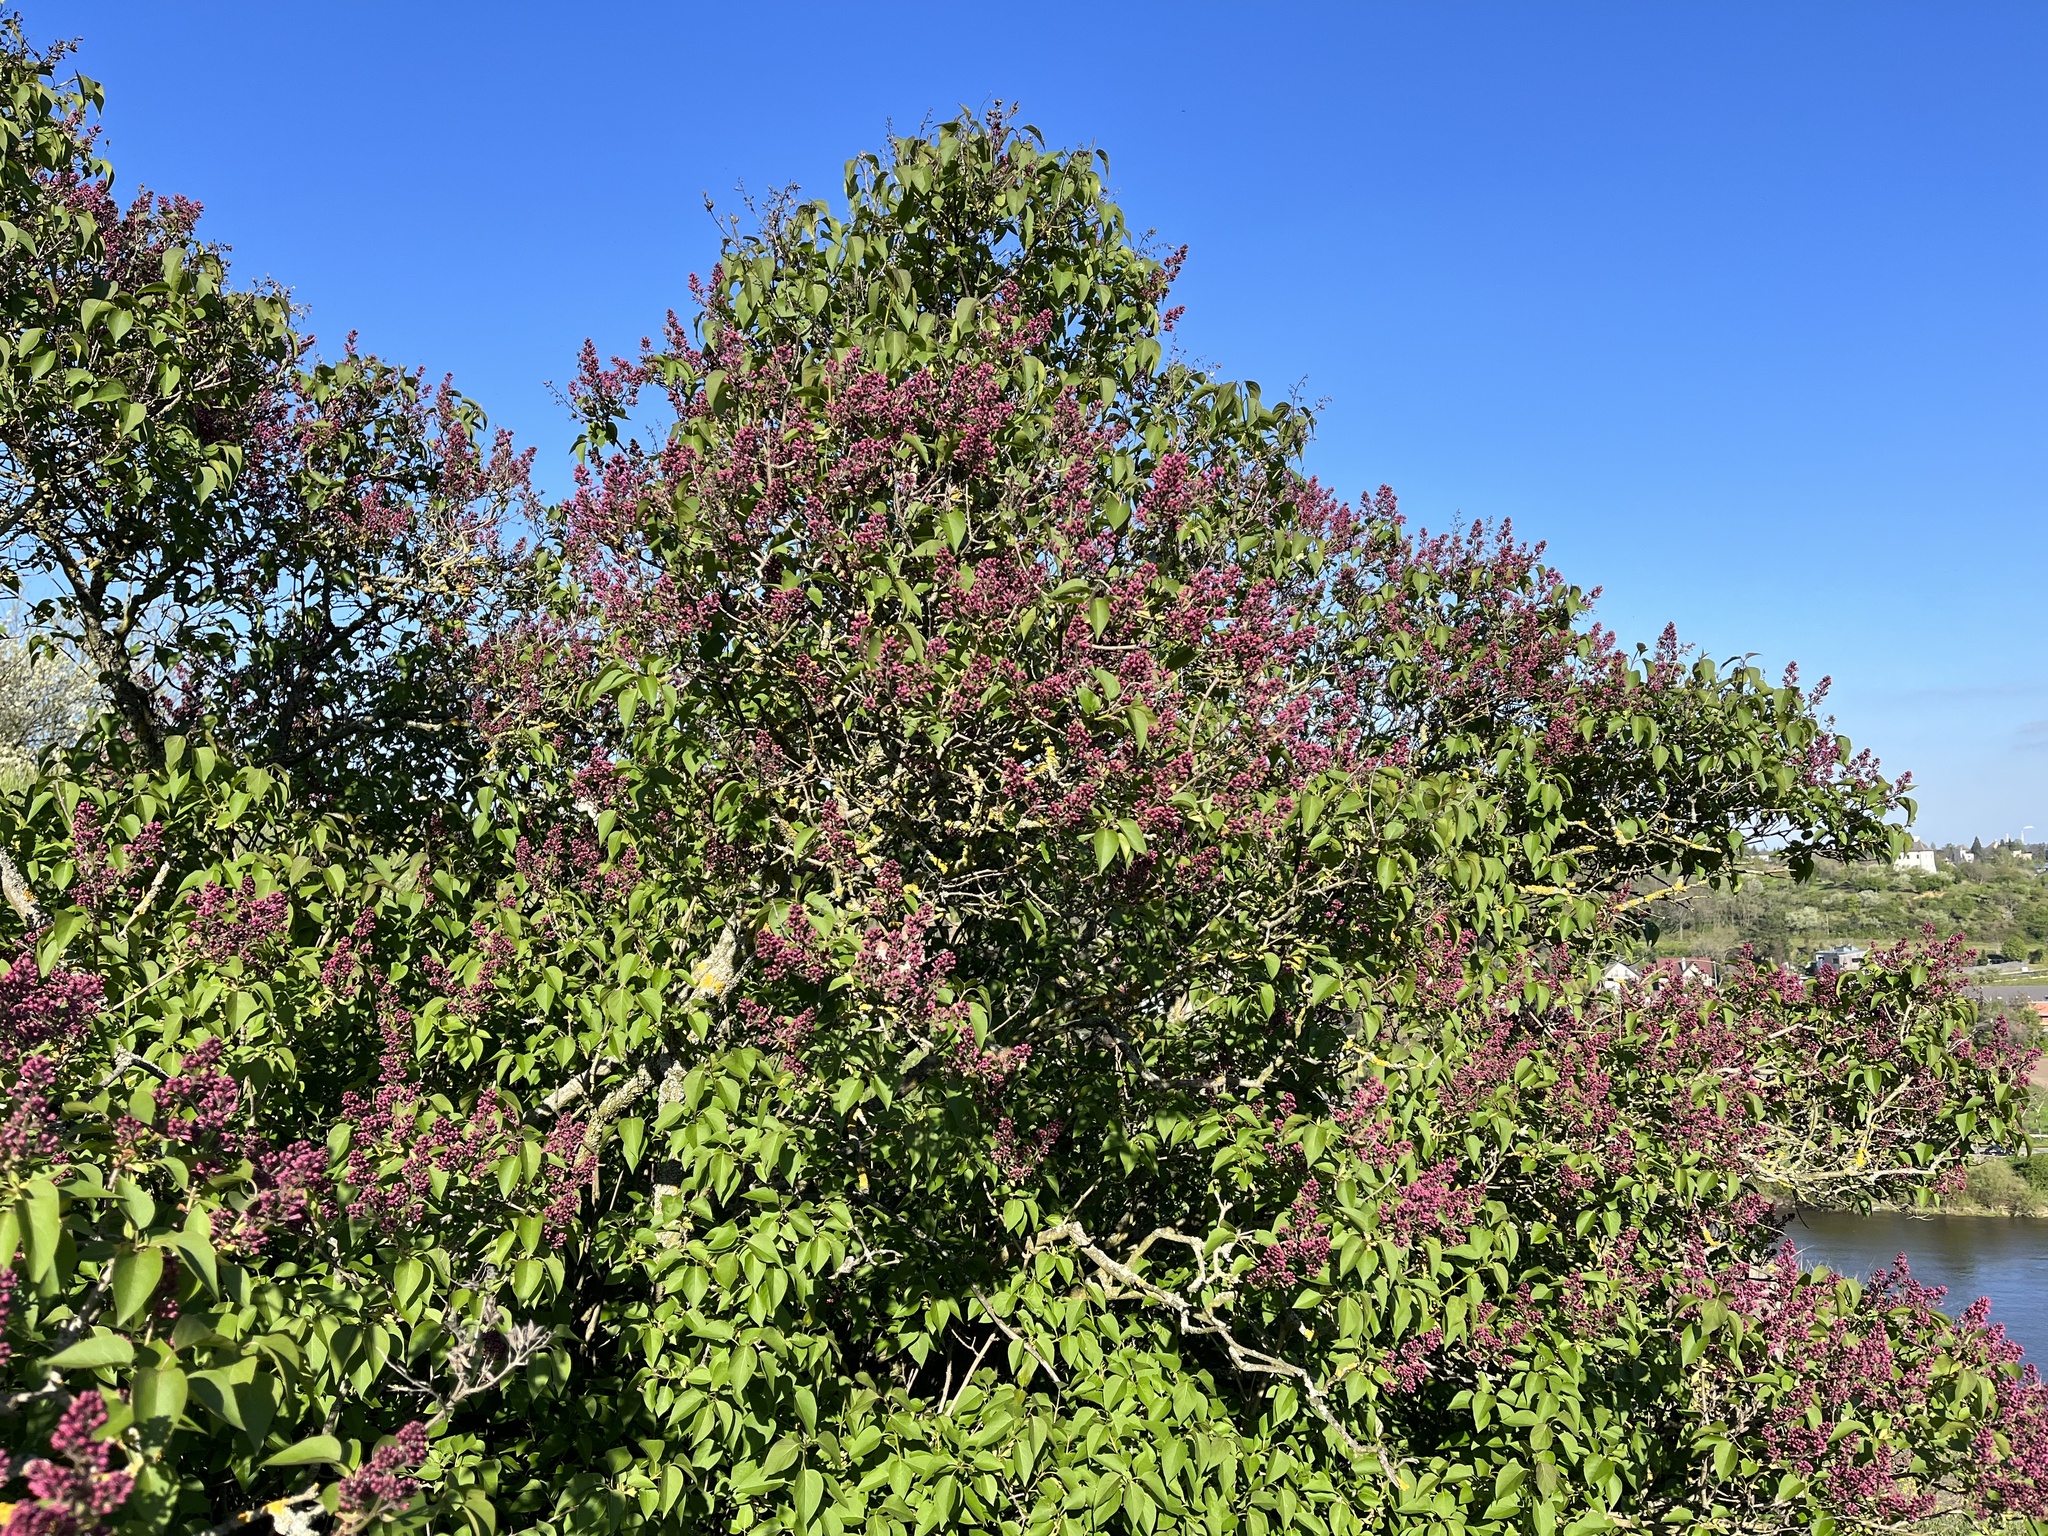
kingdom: Plantae
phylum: Tracheophyta
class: Magnoliopsida
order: Lamiales
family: Oleaceae
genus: Syringa
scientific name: Syringa vulgaris
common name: Common lilac
